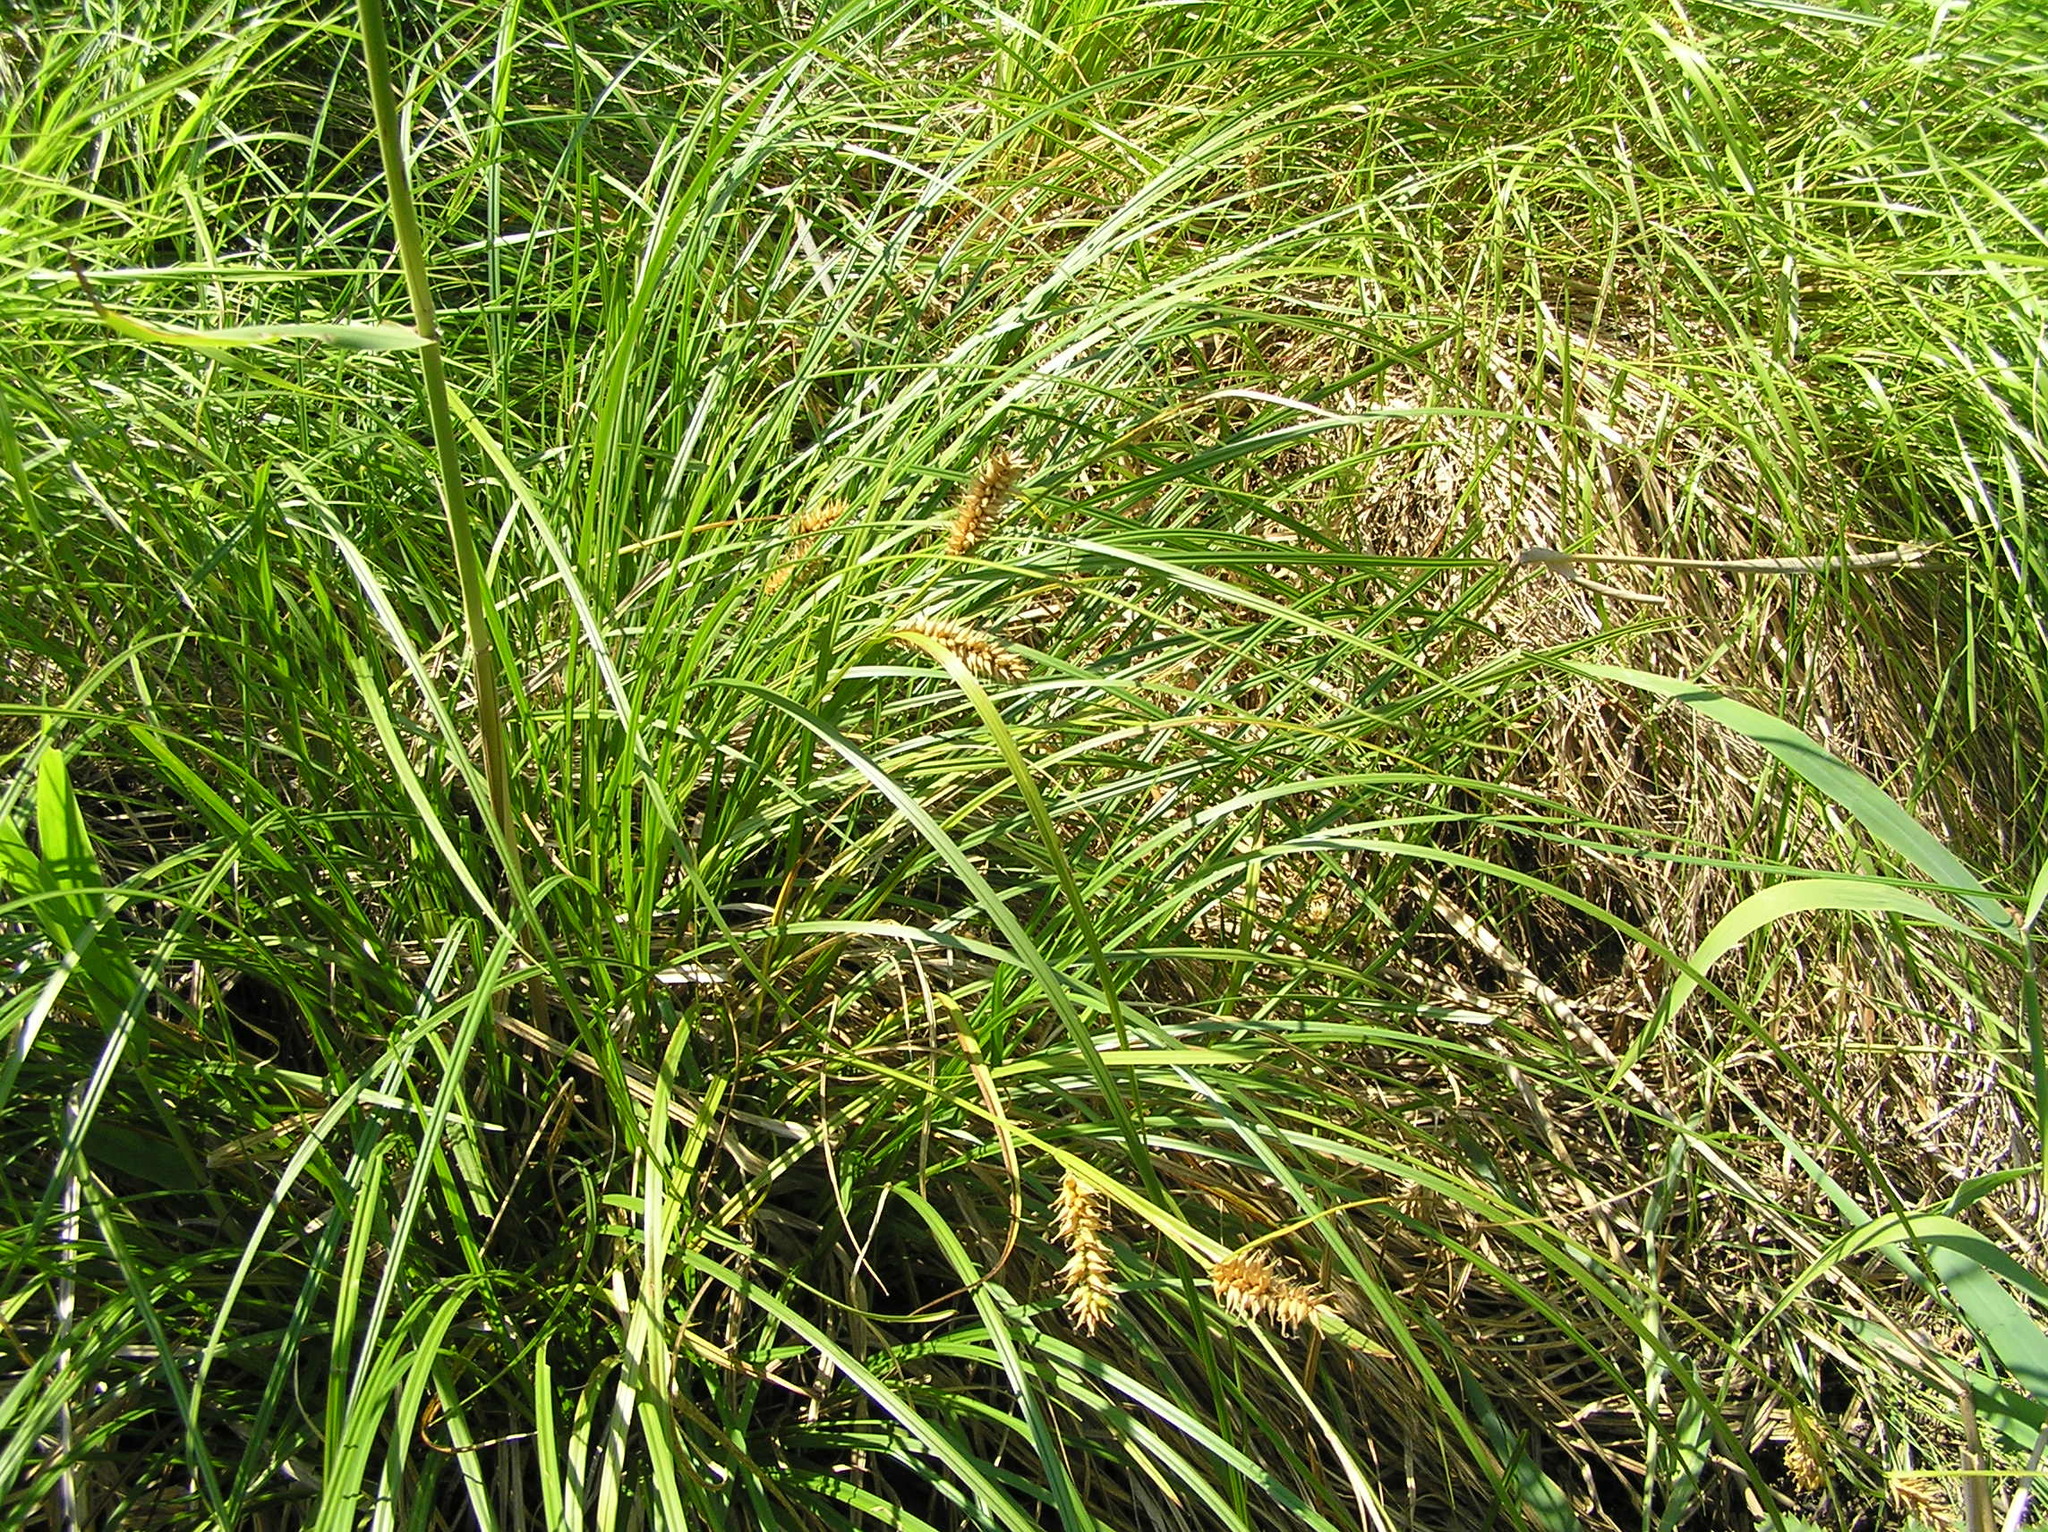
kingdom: Plantae
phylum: Tracheophyta
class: Liliopsida
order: Poales
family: Cyperaceae
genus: Carex
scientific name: Carex vesicaria
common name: Bladder-sedge
